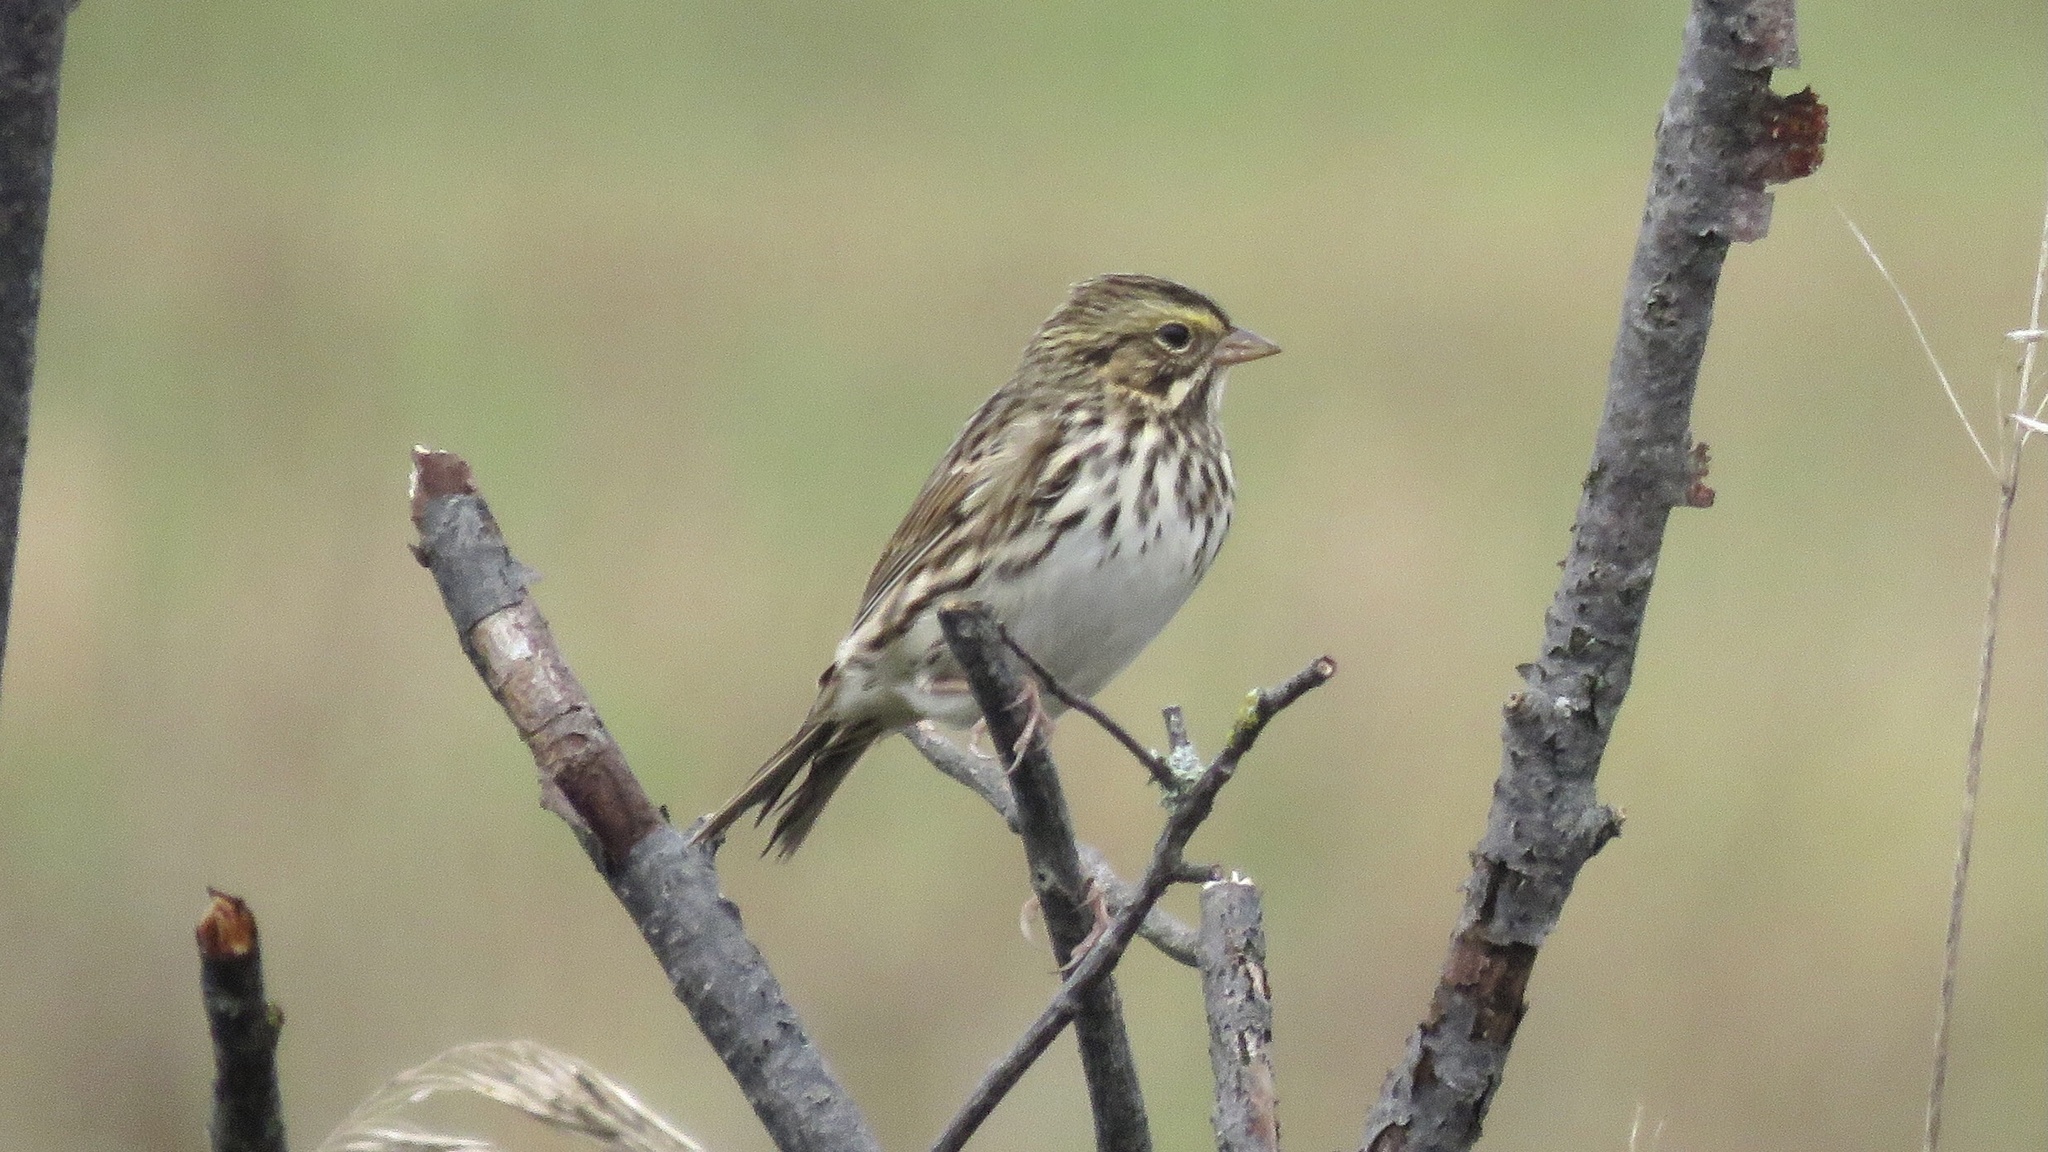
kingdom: Animalia
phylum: Chordata
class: Aves
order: Passeriformes
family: Passerellidae
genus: Passerculus
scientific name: Passerculus sandwichensis
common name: Savannah sparrow
